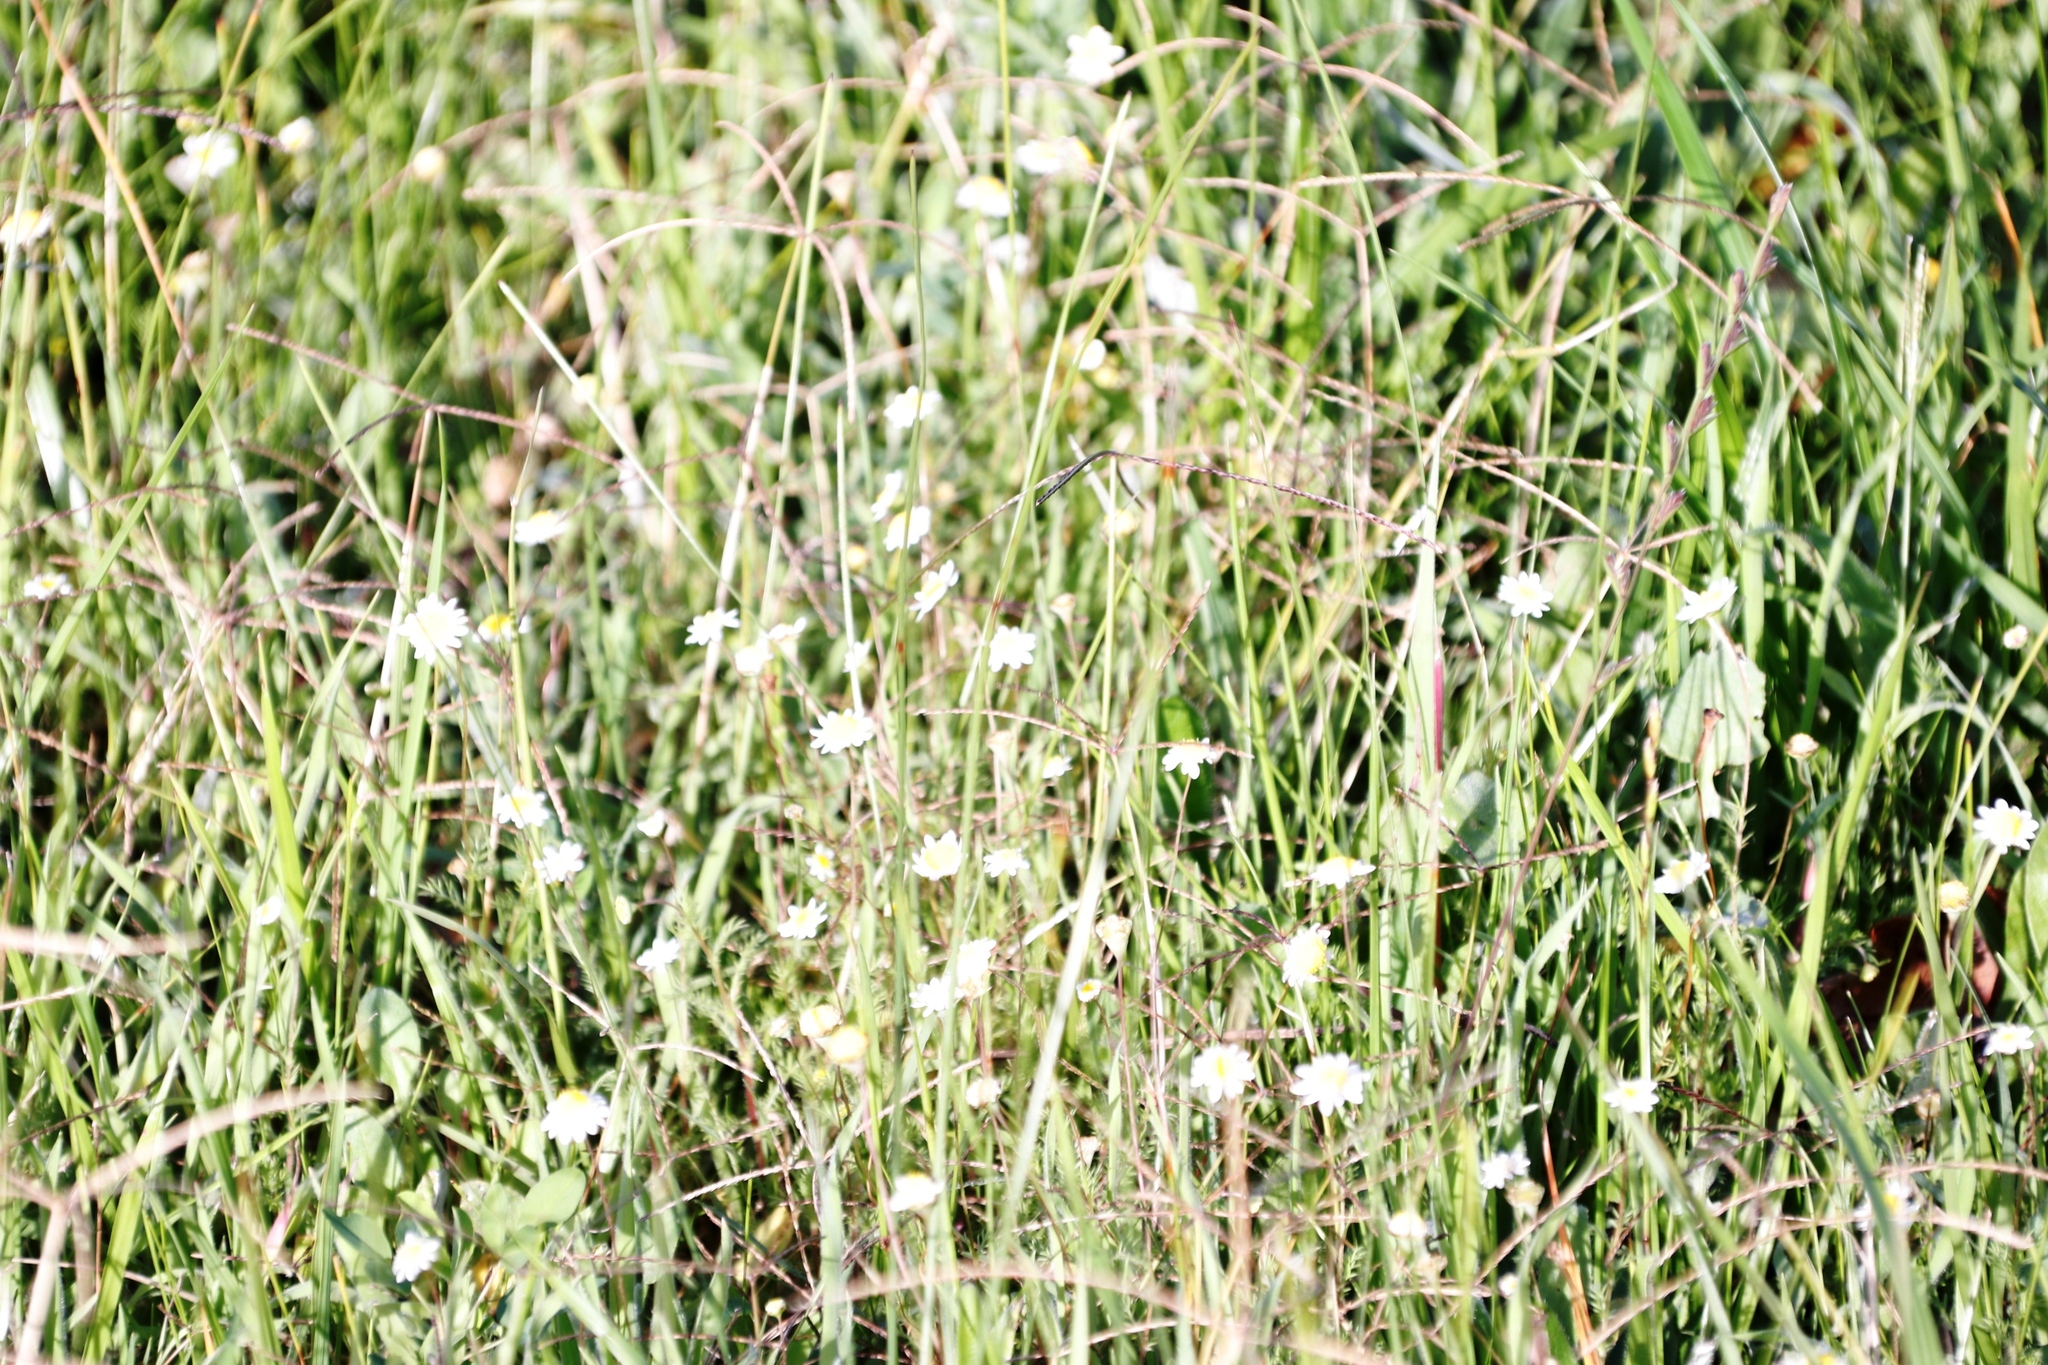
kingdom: Plantae
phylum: Tracheophyta
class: Magnoliopsida
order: Asterales
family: Asteraceae
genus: Cotula
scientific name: Cotula turbinata
